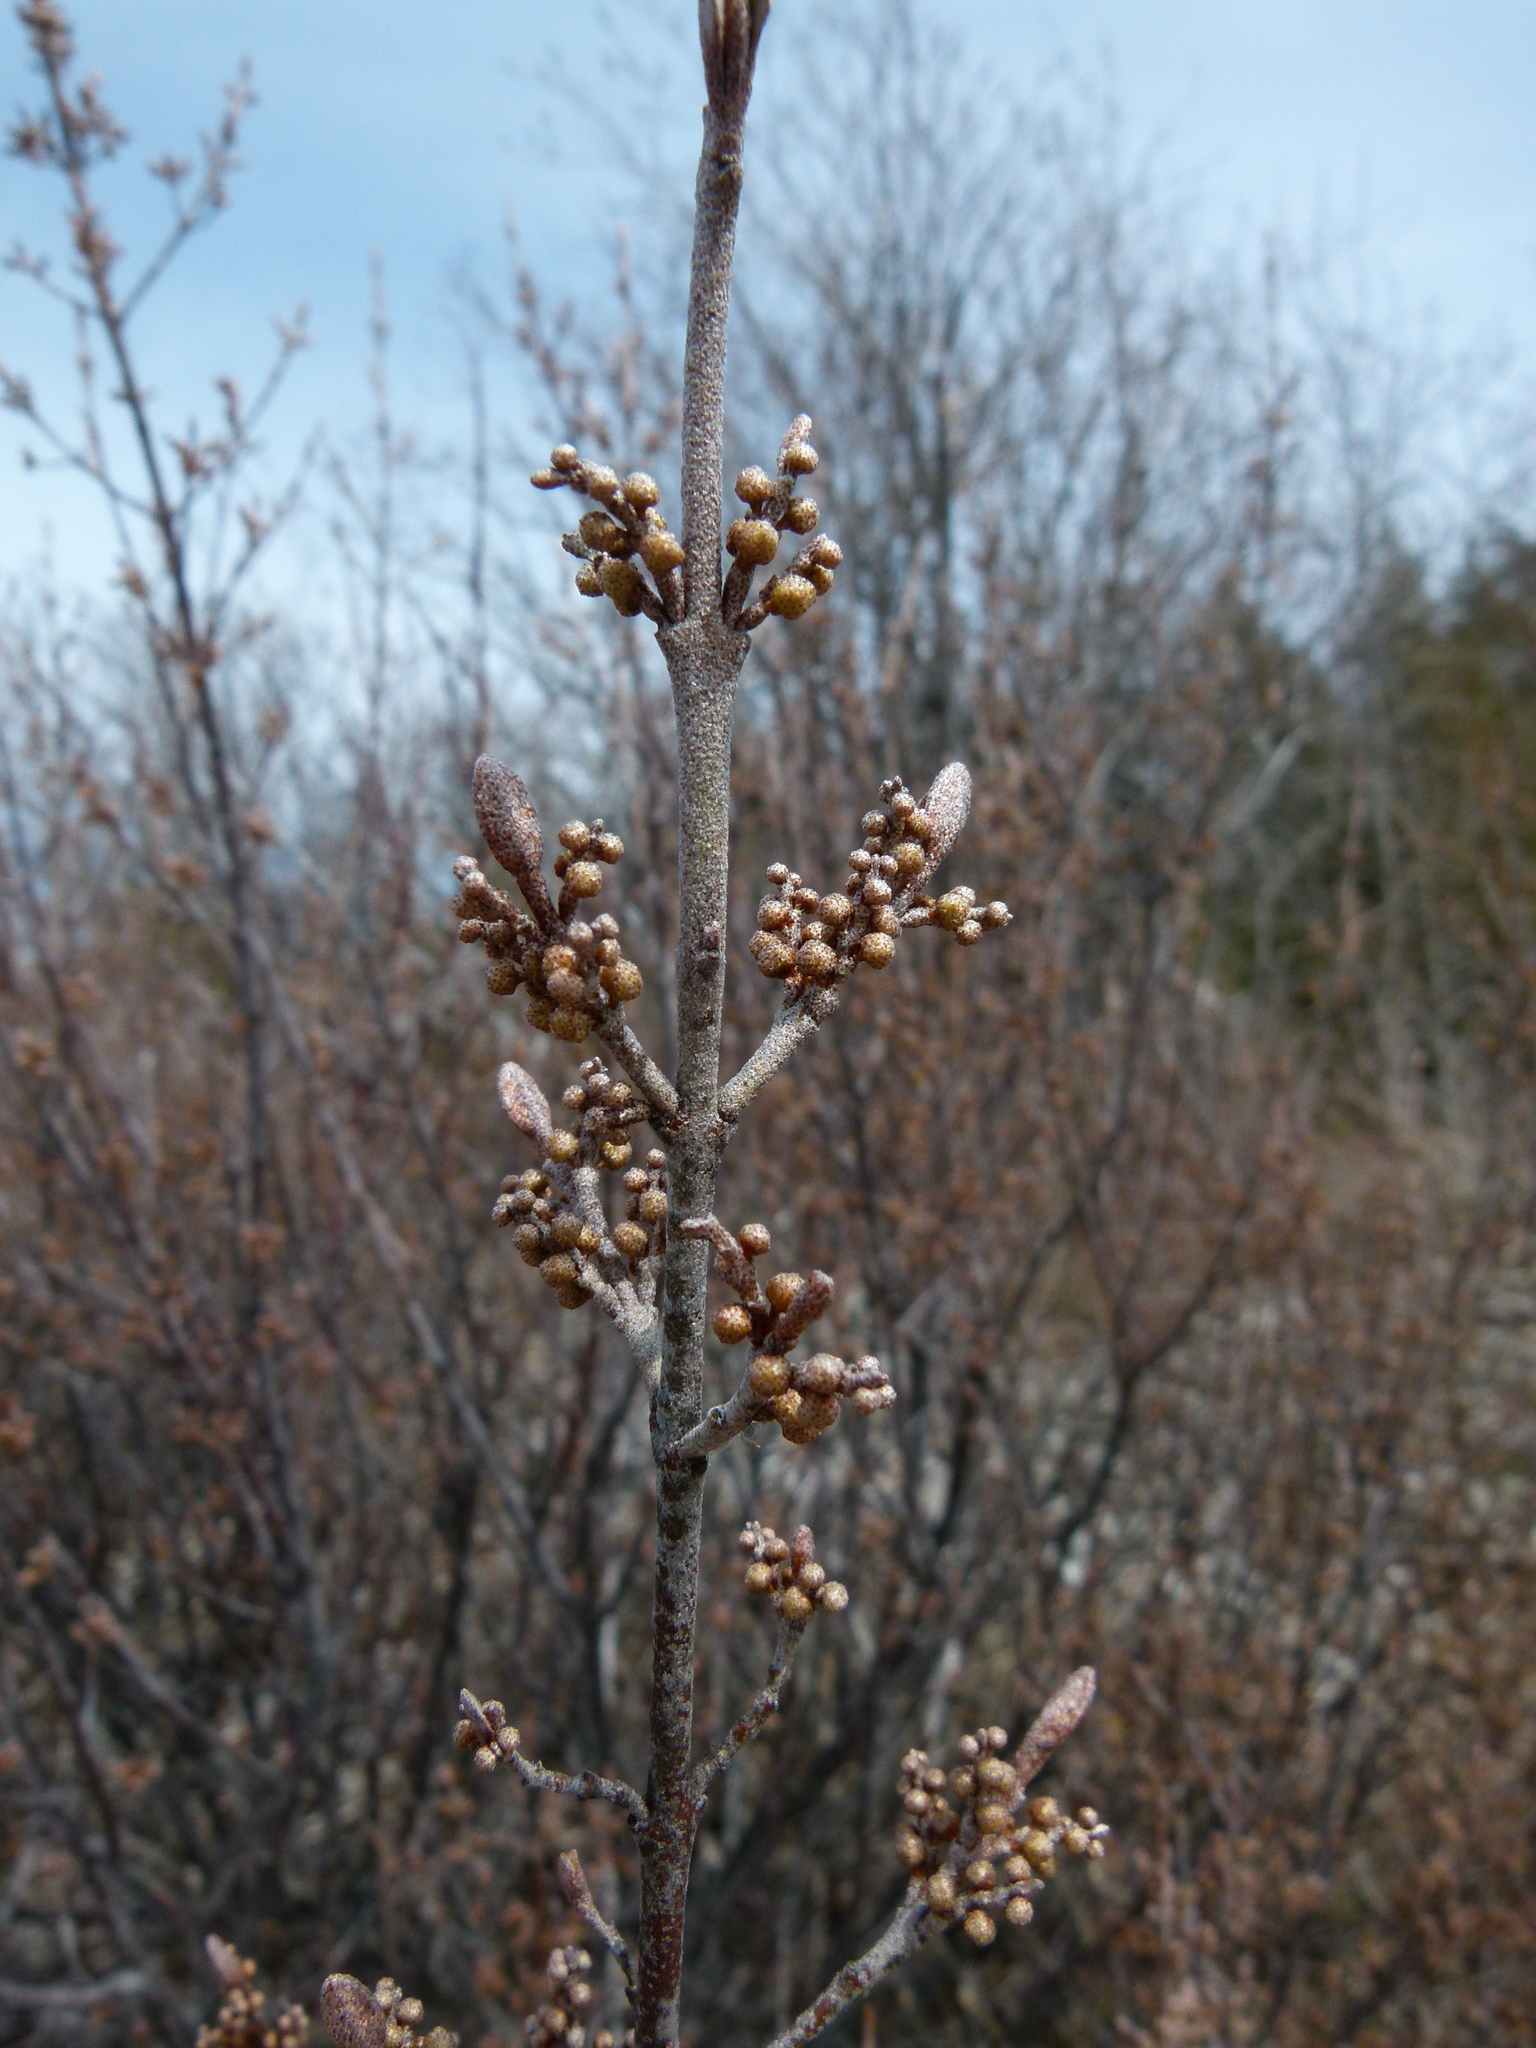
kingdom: Plantae
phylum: Tracheophyta
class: Magnoliopsida
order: Rosales
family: Elaeagnaceae
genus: Shepherdia
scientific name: Shepherdia canadensis
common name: Soapberry
